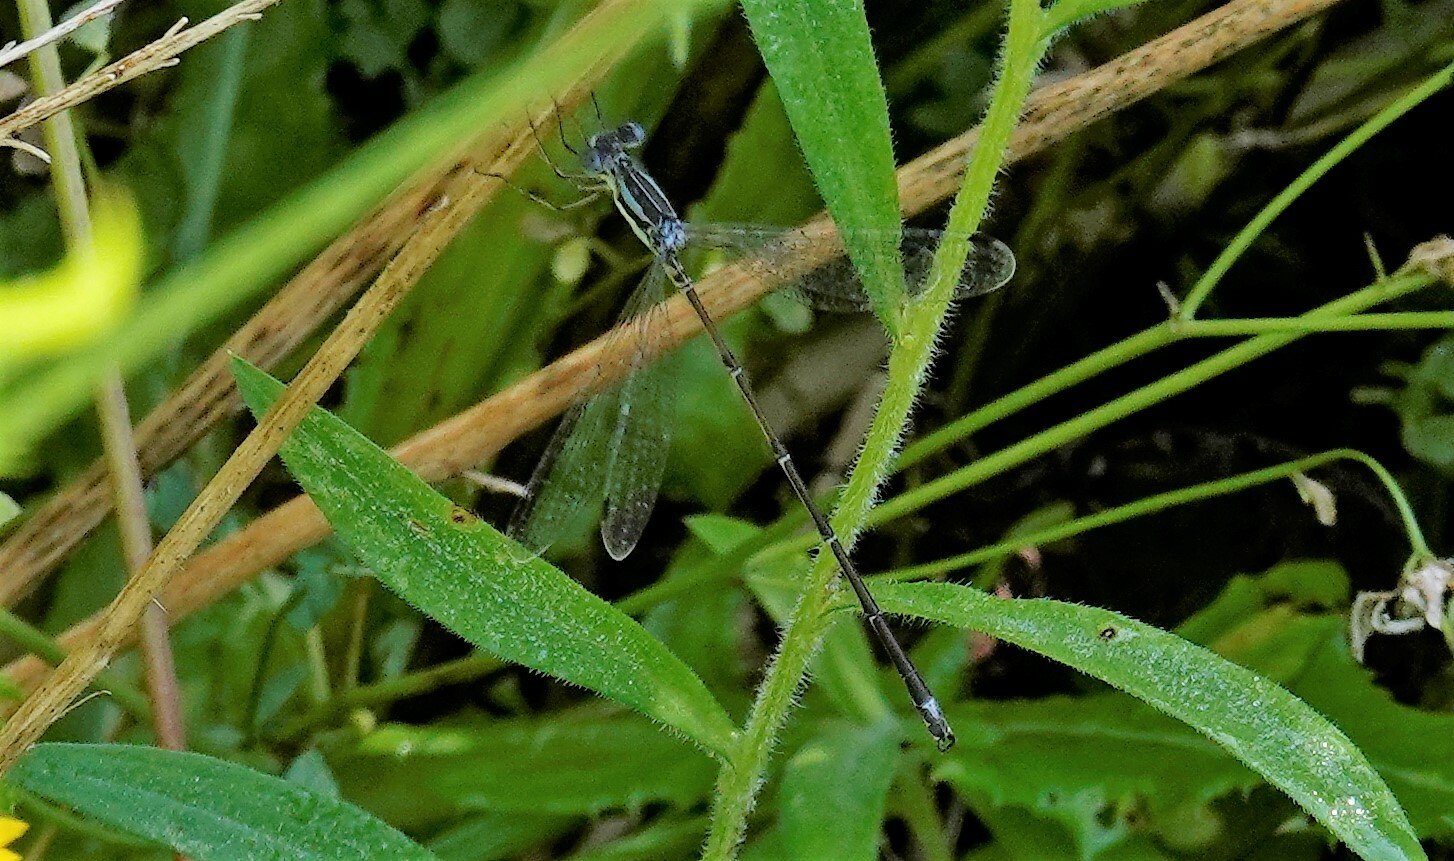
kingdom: Animalia
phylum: Arthropoda
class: Insecta
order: Odonata
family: Lestidae
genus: Lestes
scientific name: Lestes rectangularis
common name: Slender spreadwing
